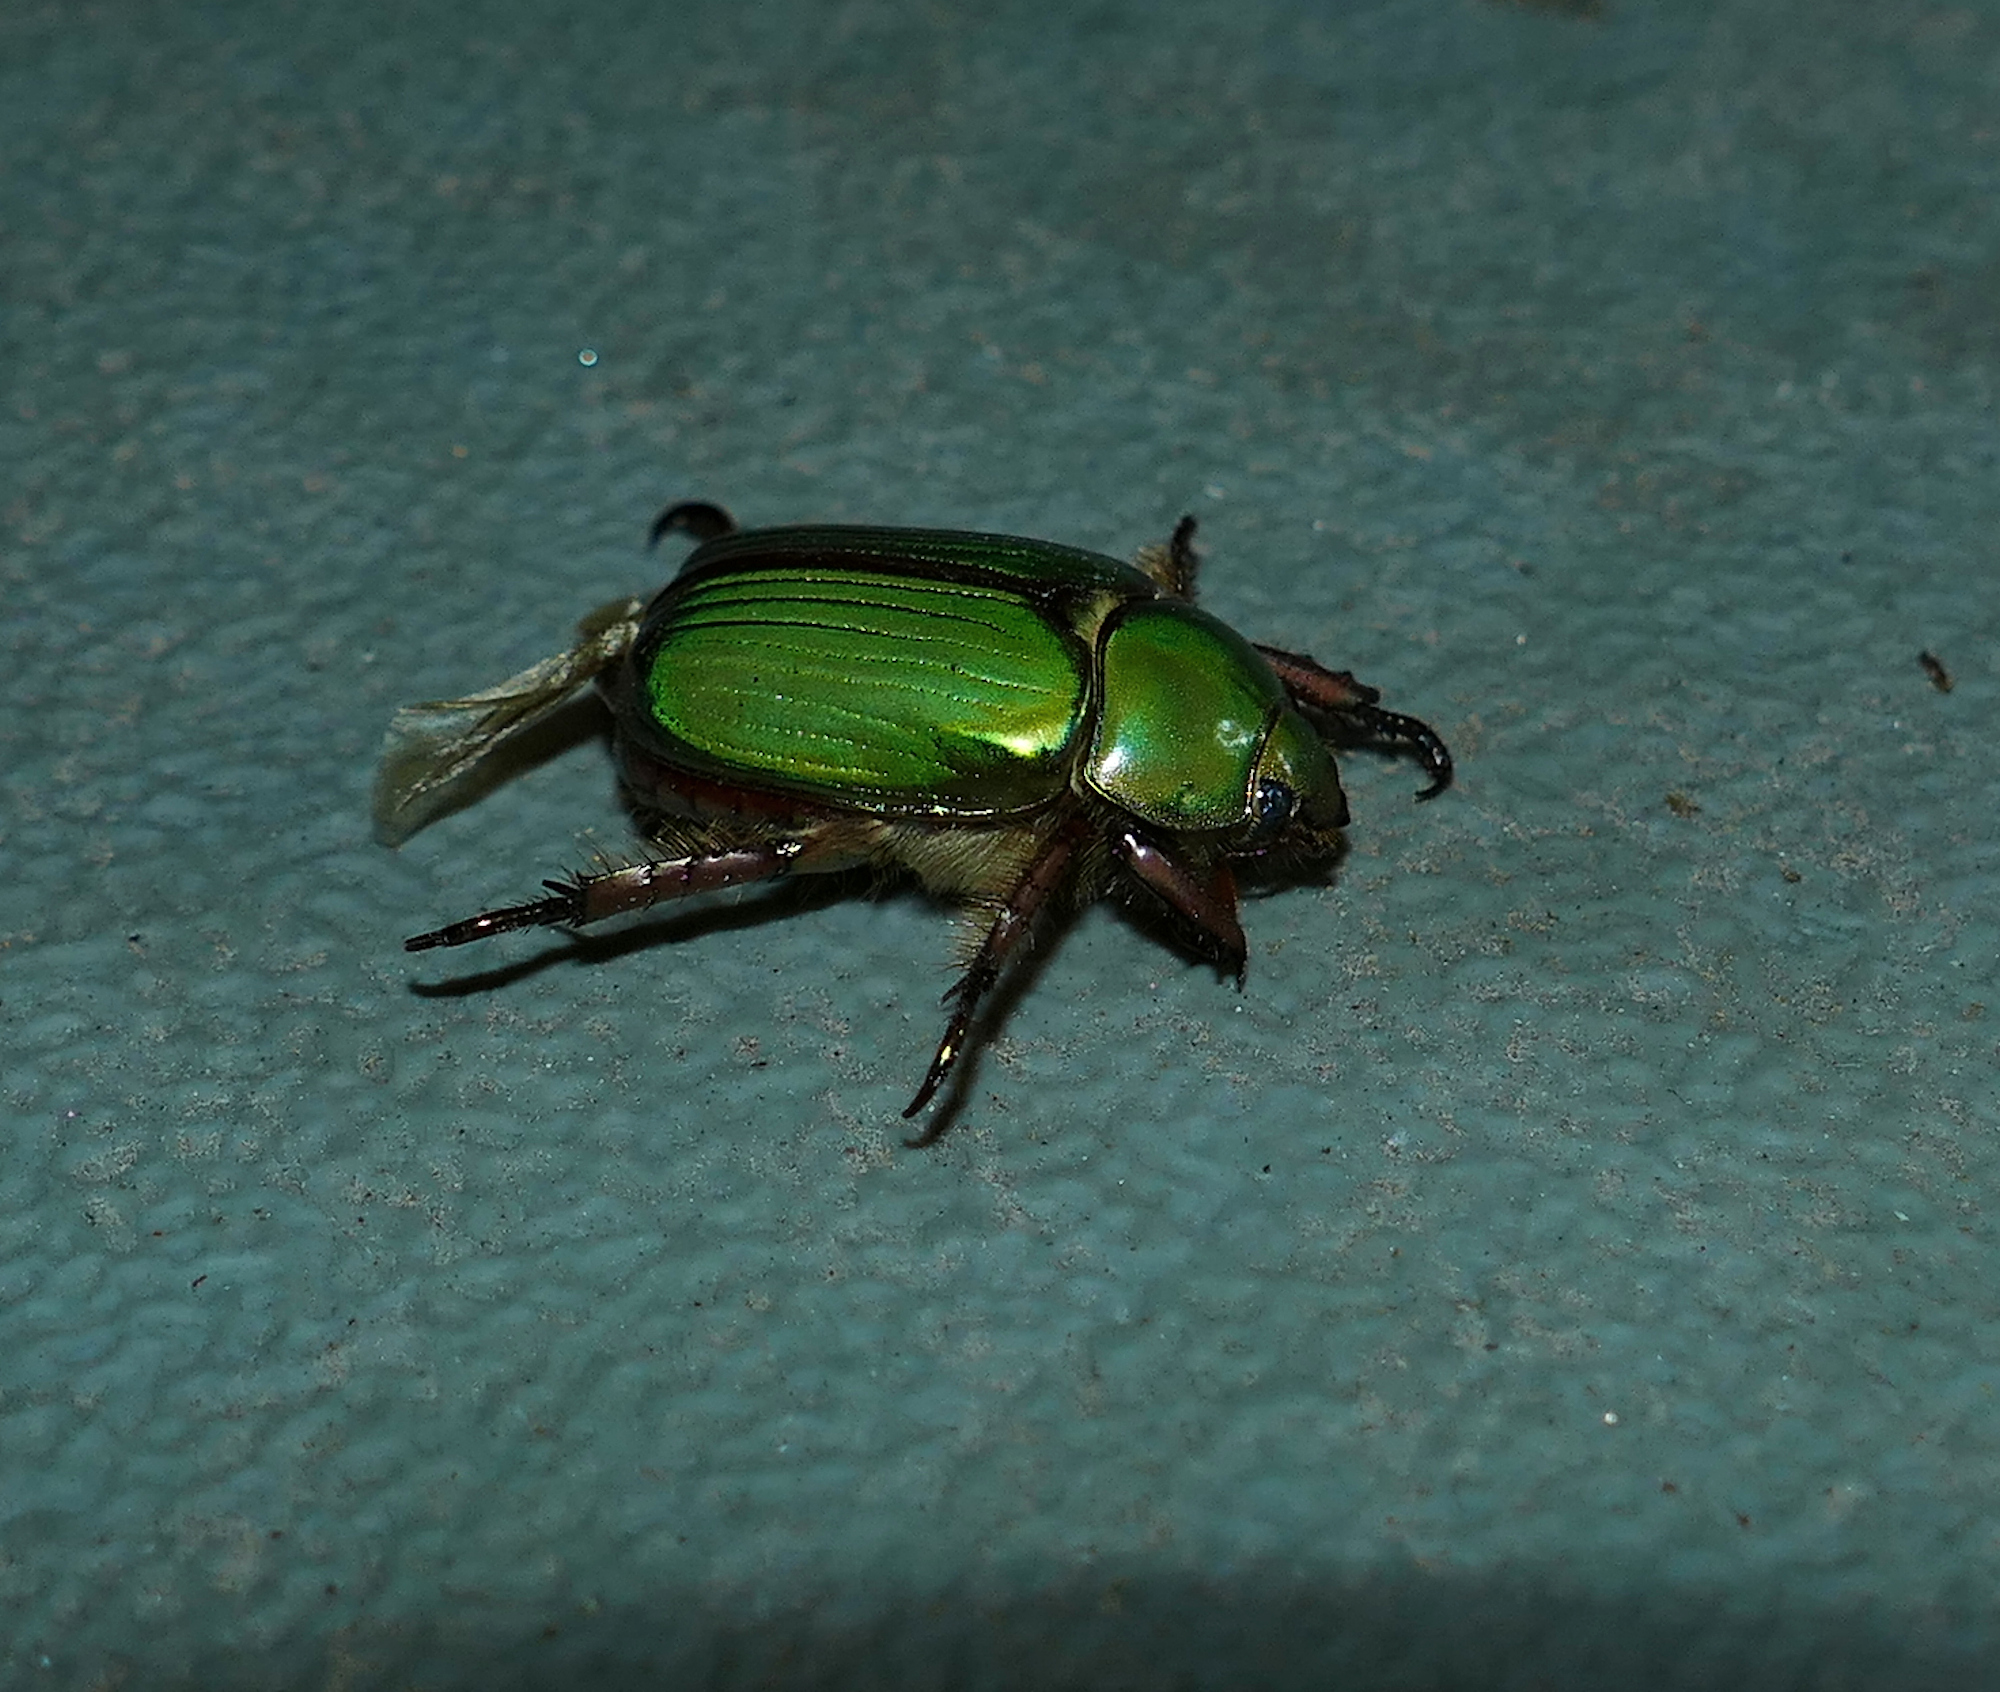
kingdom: Animalia
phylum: Arthropoda
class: Insecta
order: Coleoptera
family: Scarabaeidae
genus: Chrysina
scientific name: Chrysina lecontei
